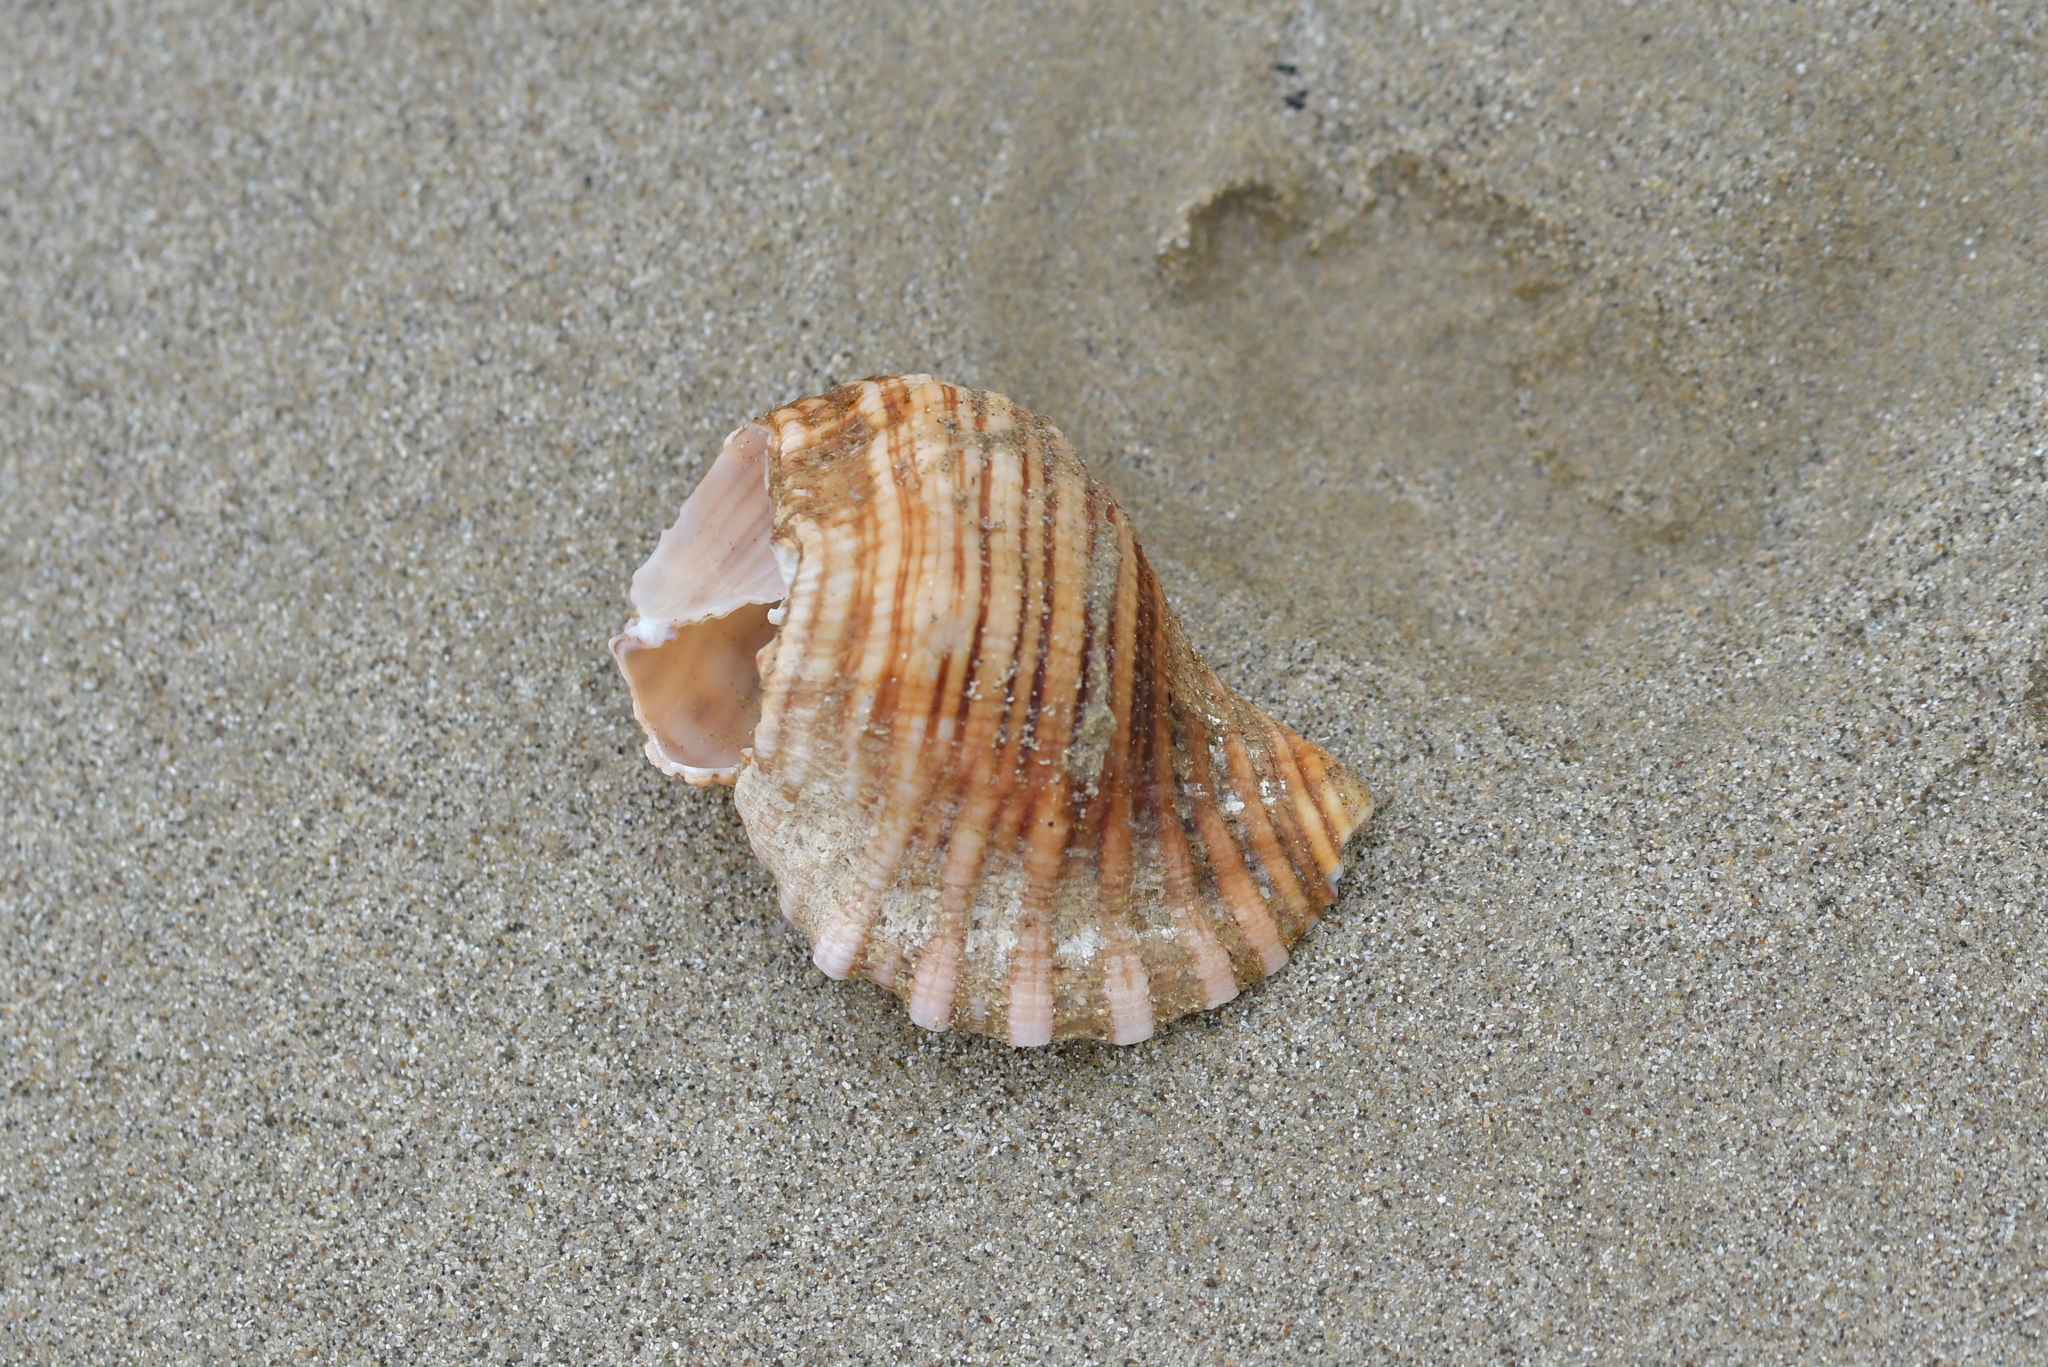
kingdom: Animalia
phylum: Mollusca
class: Gastropoda
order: Littorinimorpha
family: Cymatiidae
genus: Cabestana
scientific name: Cabestana spengleri
